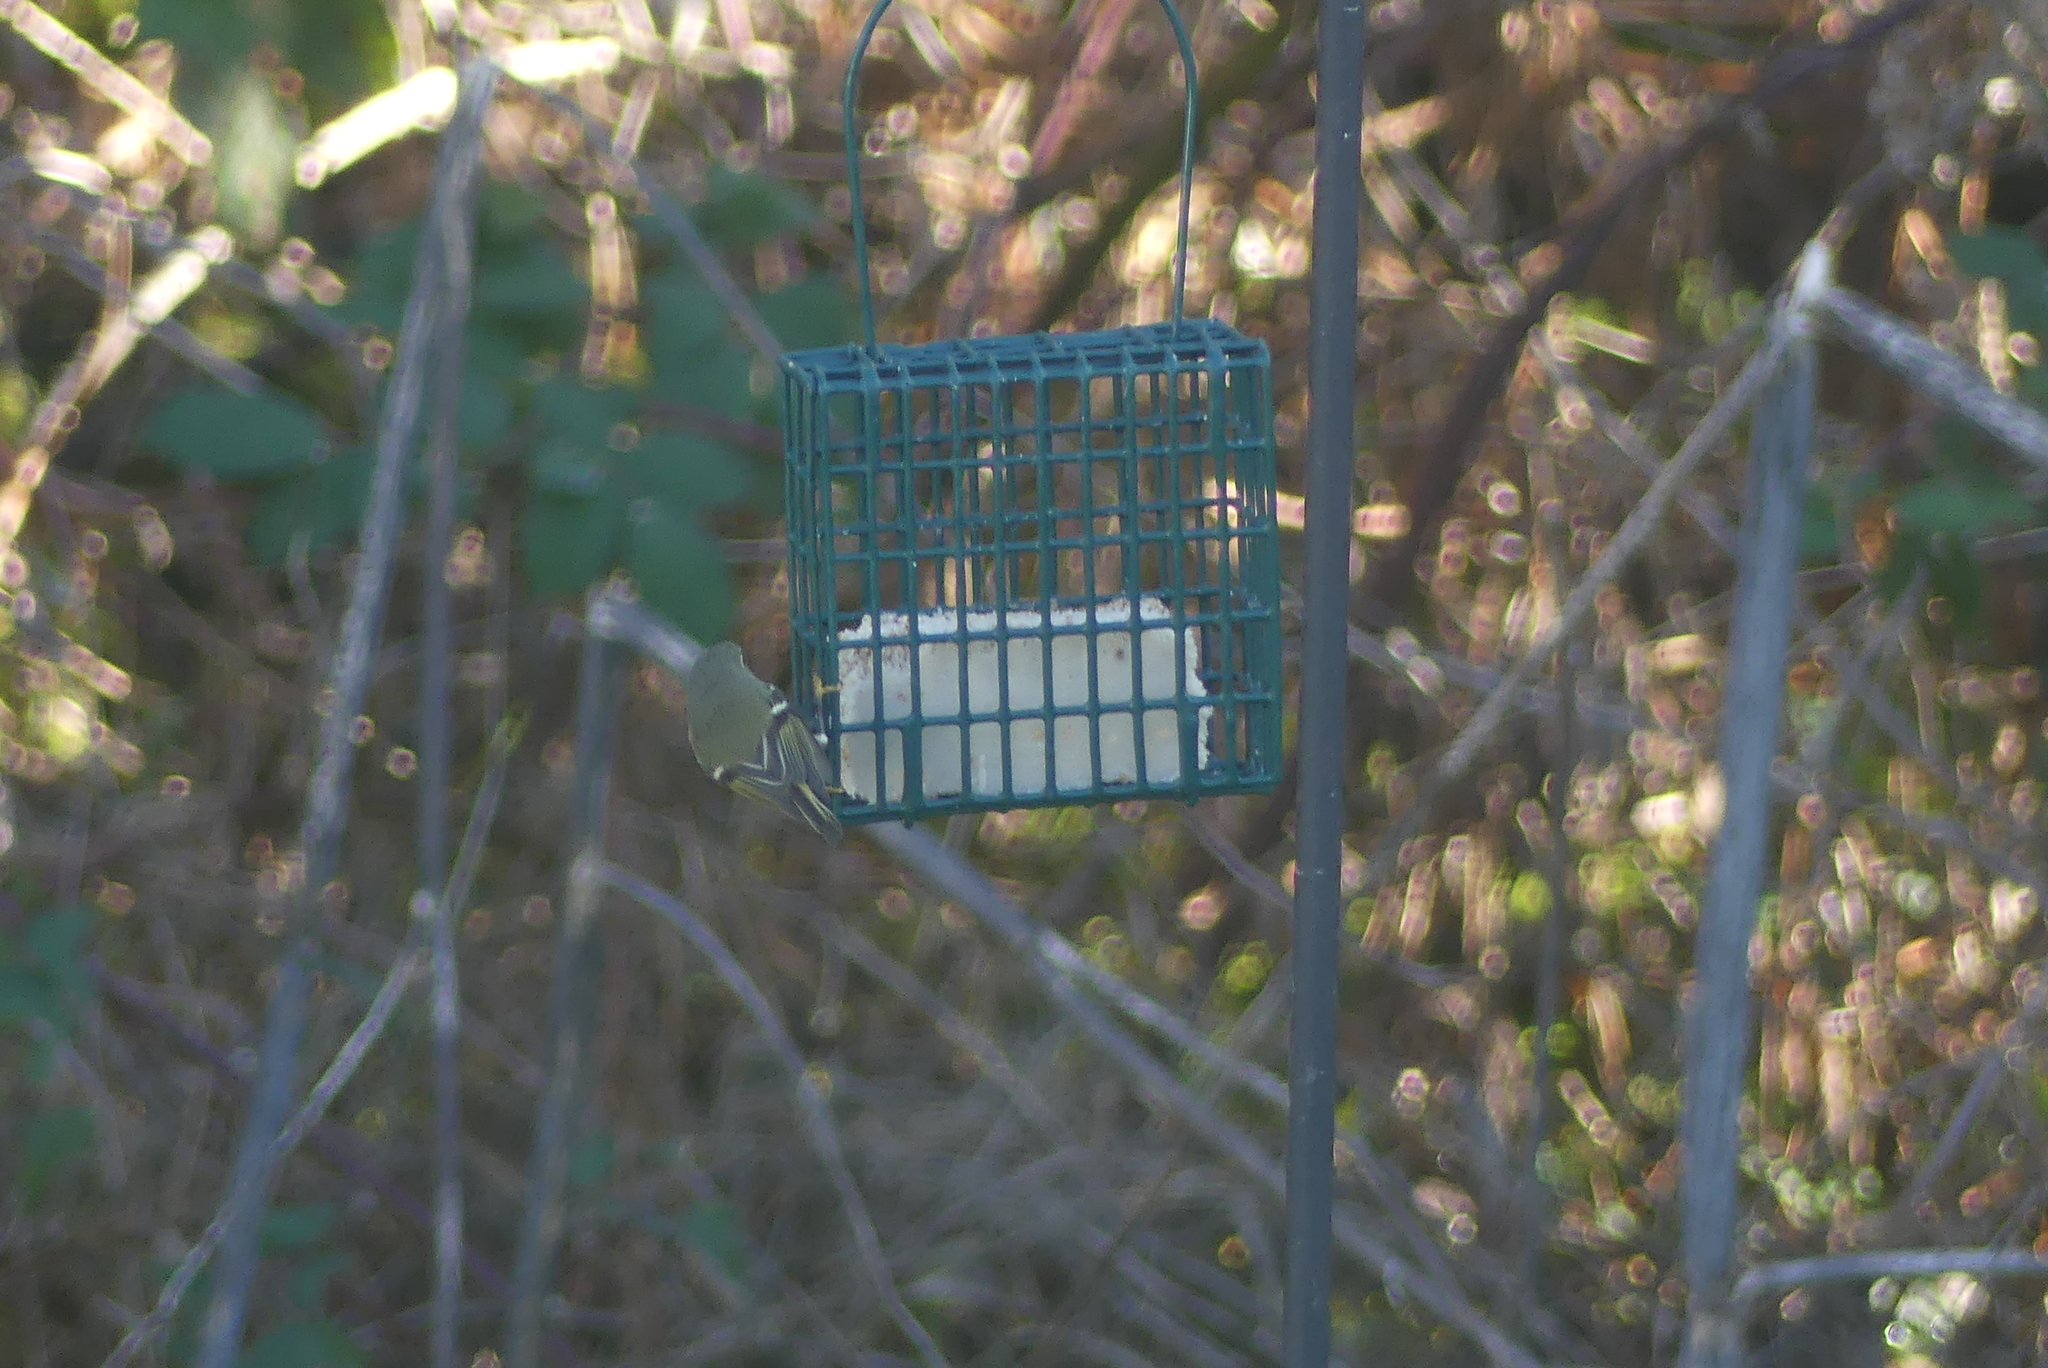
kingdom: Animalia
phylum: Chordata
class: Aves
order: Passeriformes
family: Regulidae
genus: Regulus
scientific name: Regulus calendula
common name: Ruby-crowned kinglet
